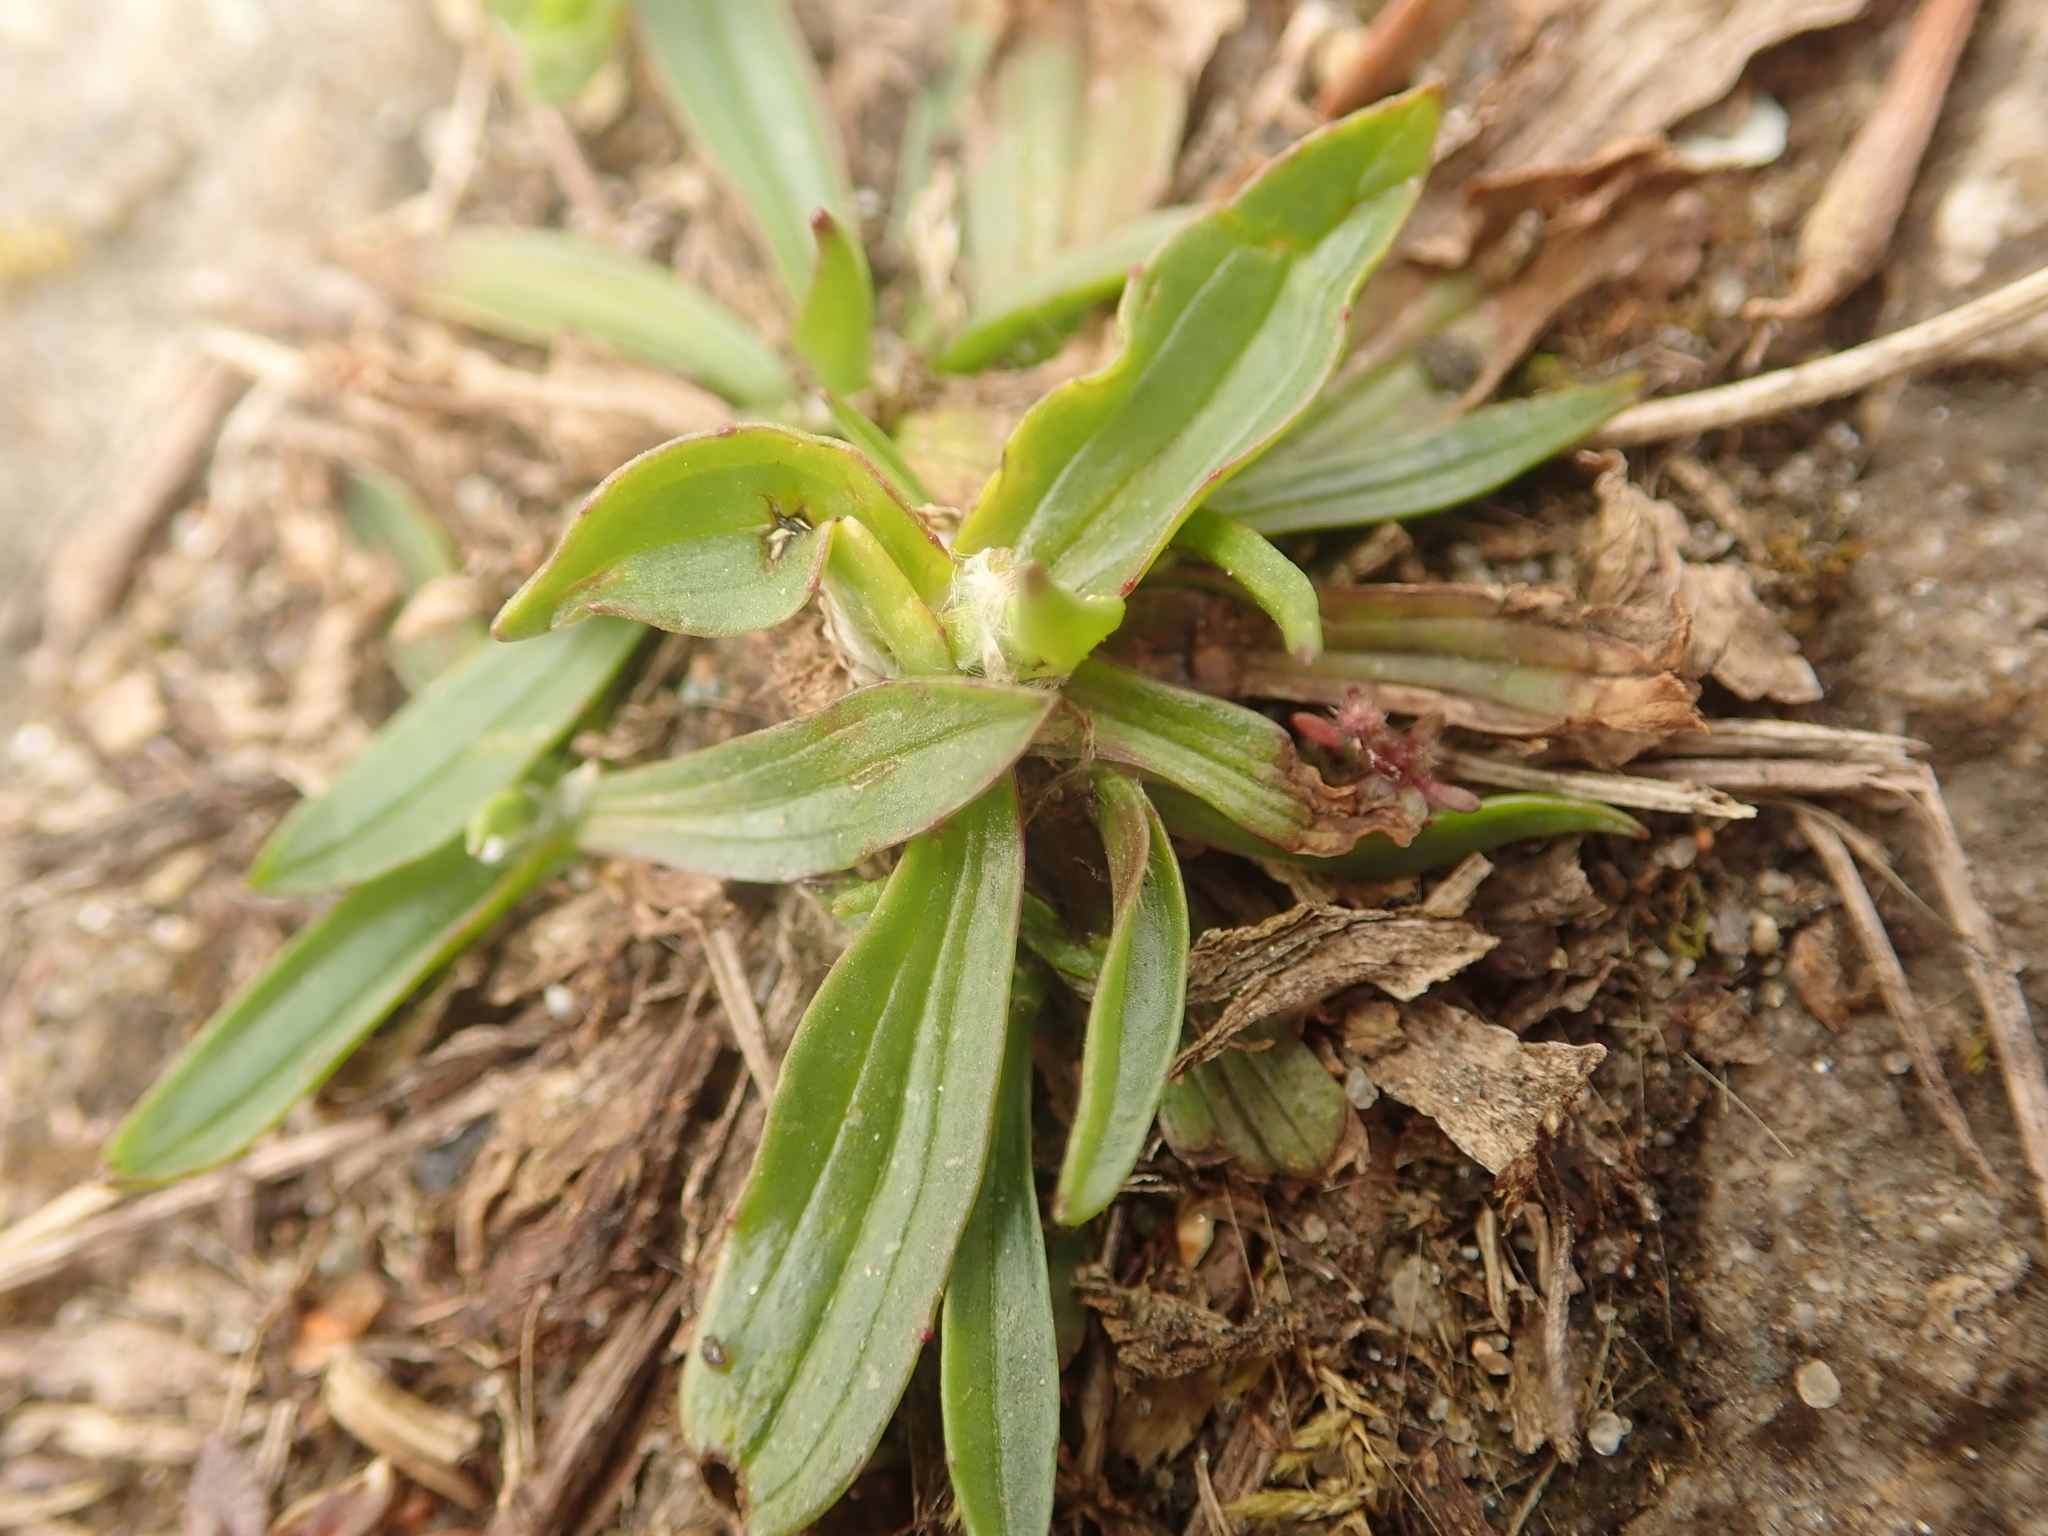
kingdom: Plantae
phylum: Tracheophyta
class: Magnoliopsida
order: Lamiales
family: Plantaginaceae
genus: Plantago
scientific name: Plantago lanceolata
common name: Ribwort plantain
